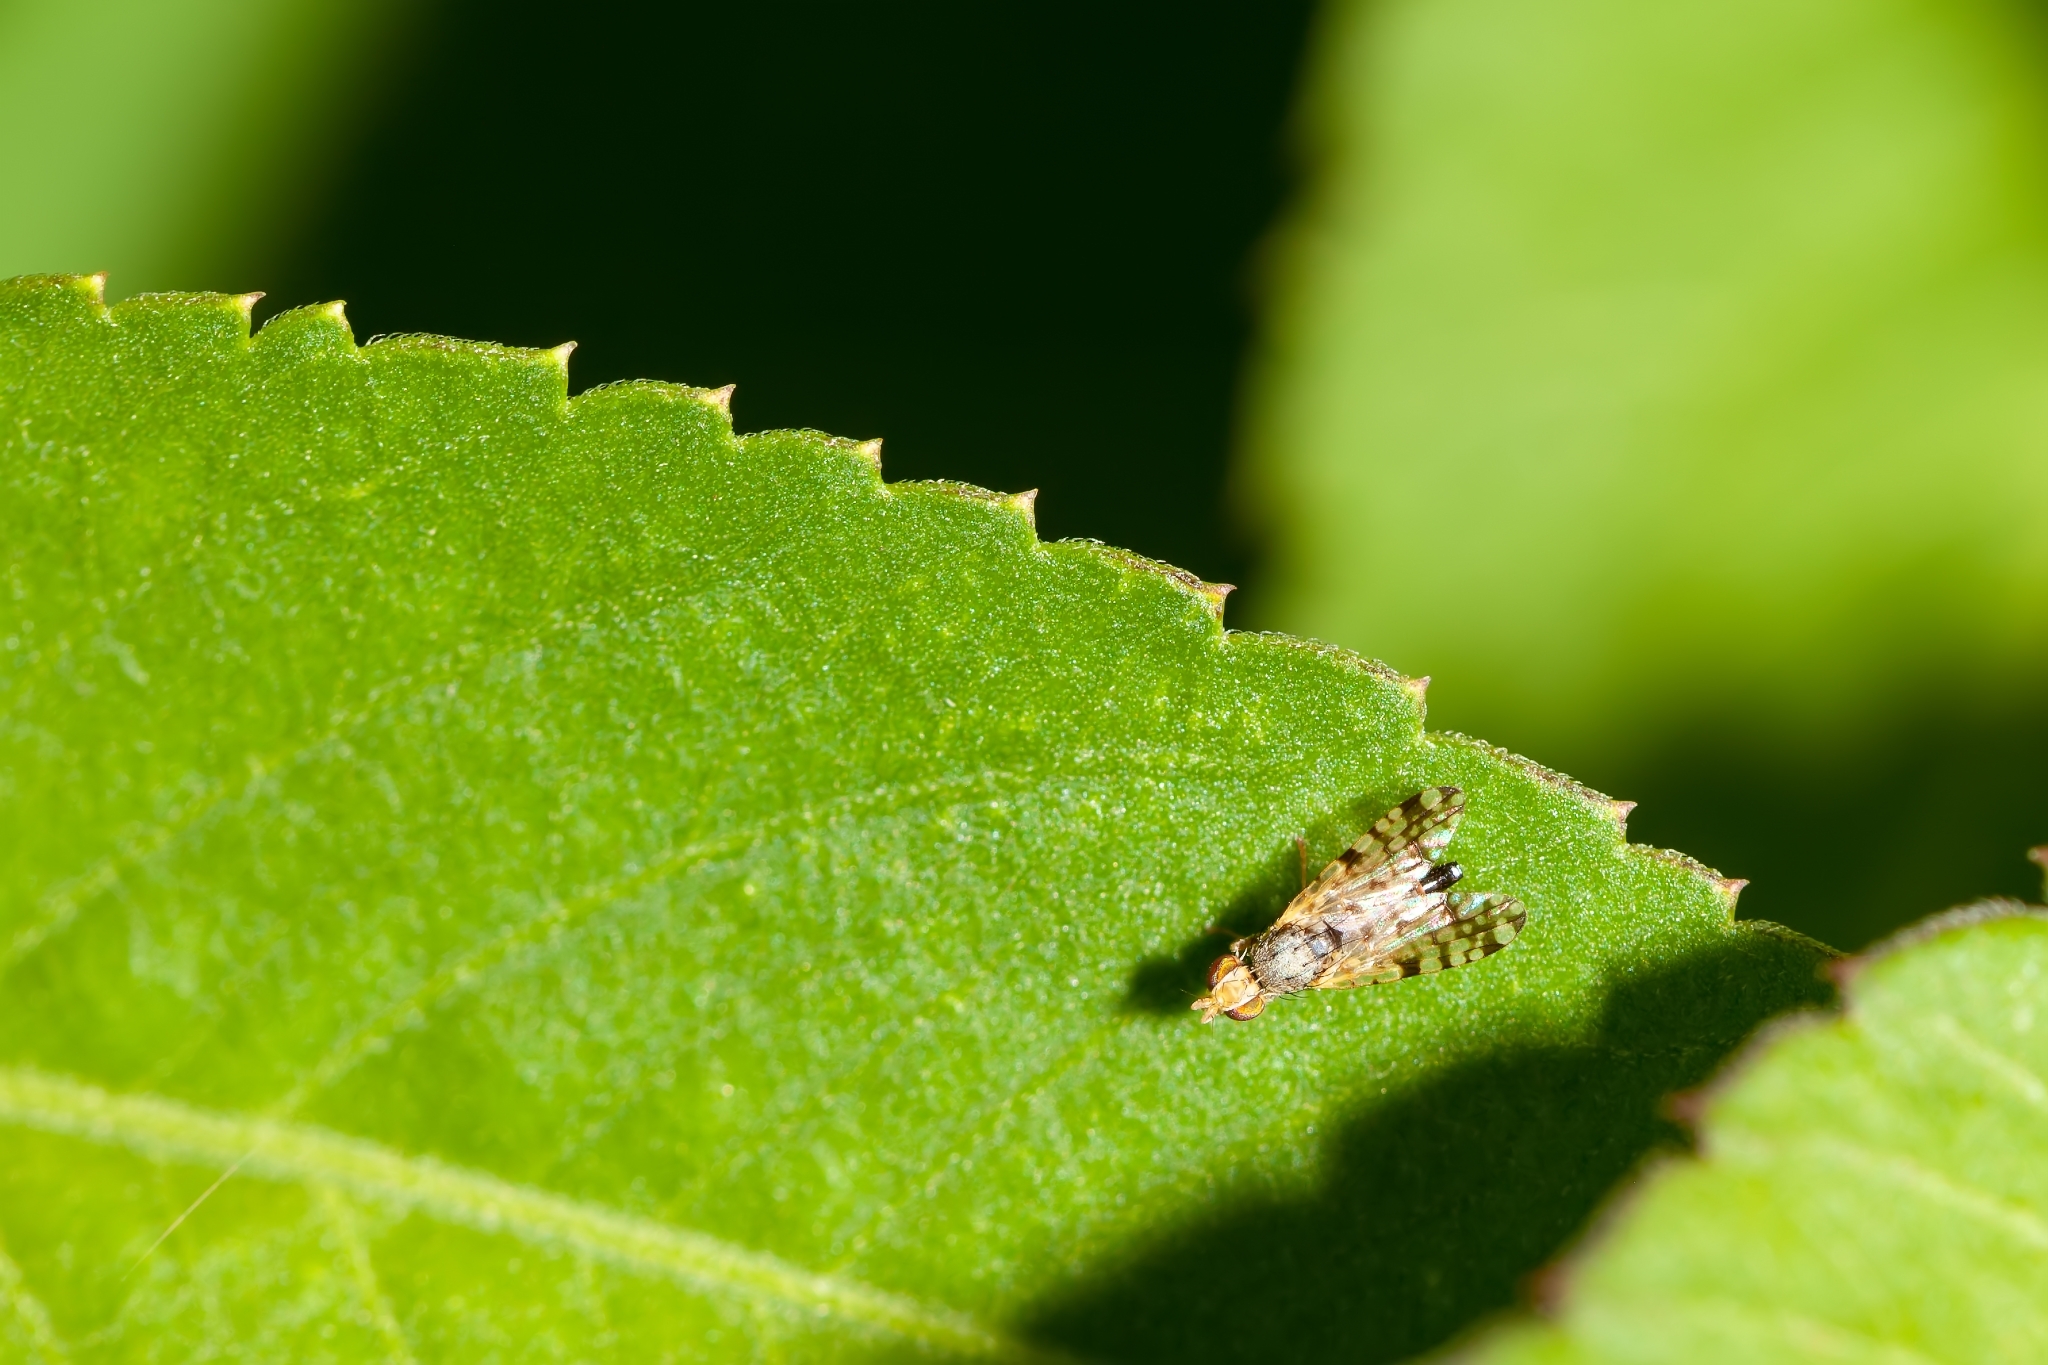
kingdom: Animalia
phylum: Arthropoda
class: Insecta
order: Diptera
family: Tephritidae
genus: Dioxyna
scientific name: Dioxyna picciola
